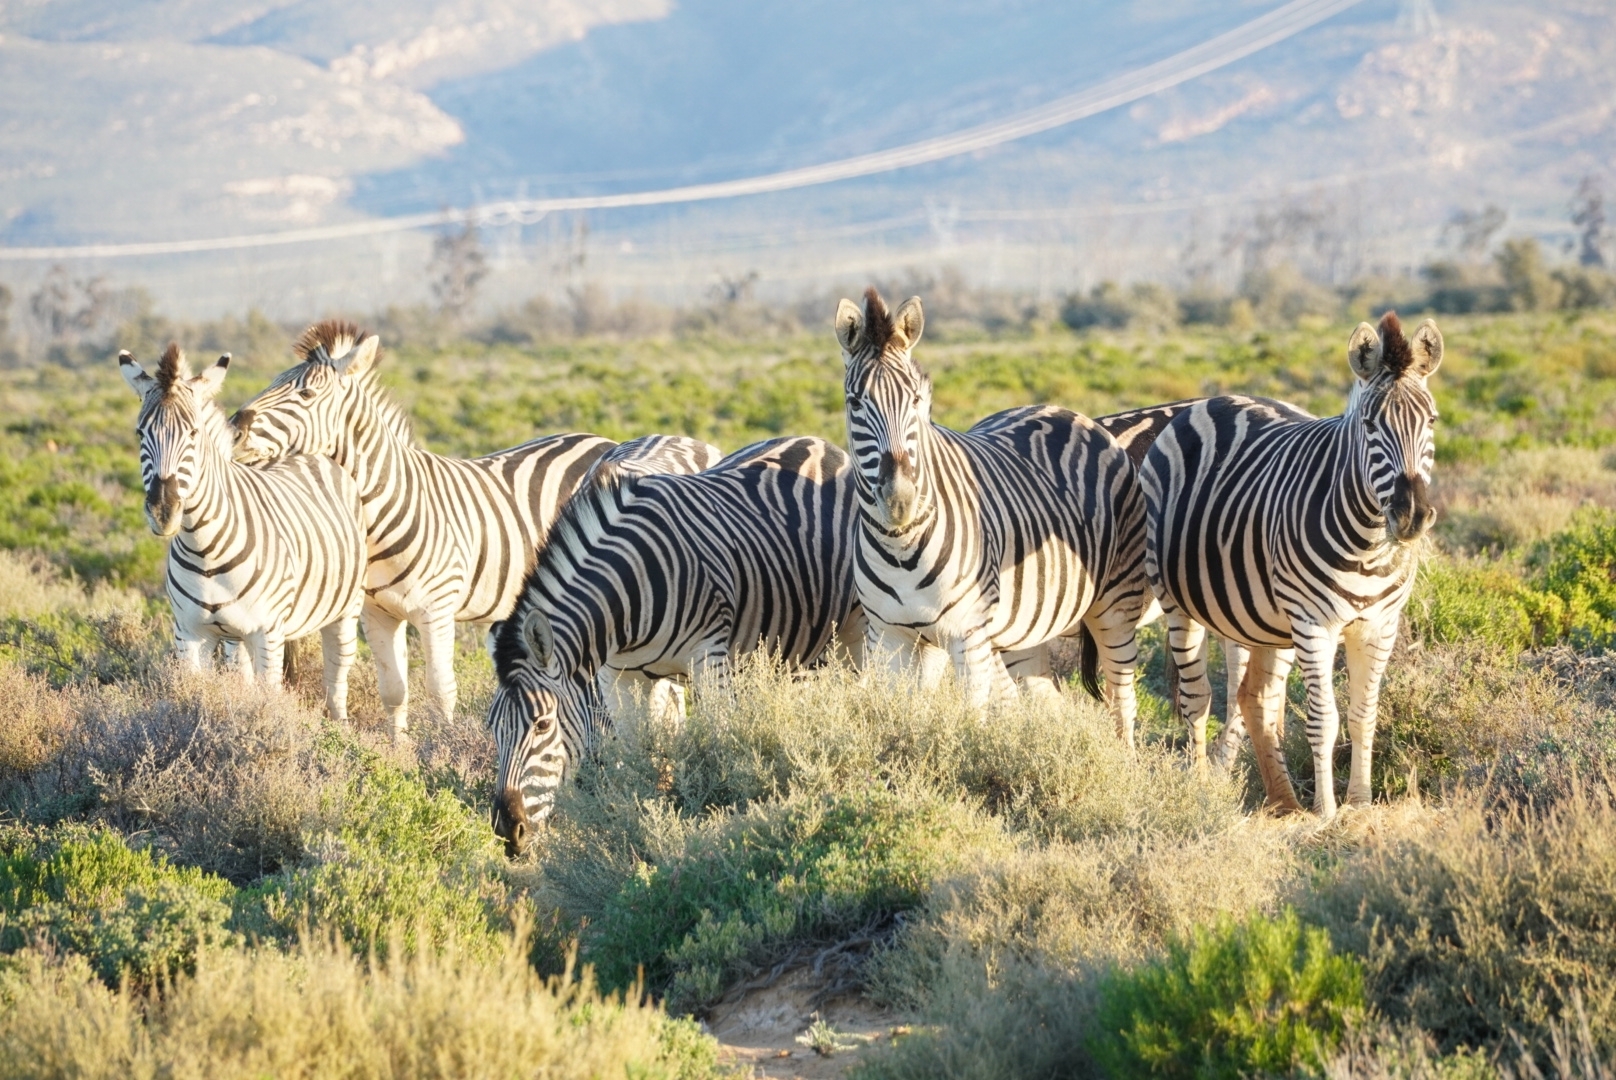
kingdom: Animalia
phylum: Chordata
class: Mammalia
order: Perissodactyla
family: Equidae
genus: Equus
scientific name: Equus quagga
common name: Plains zebra
